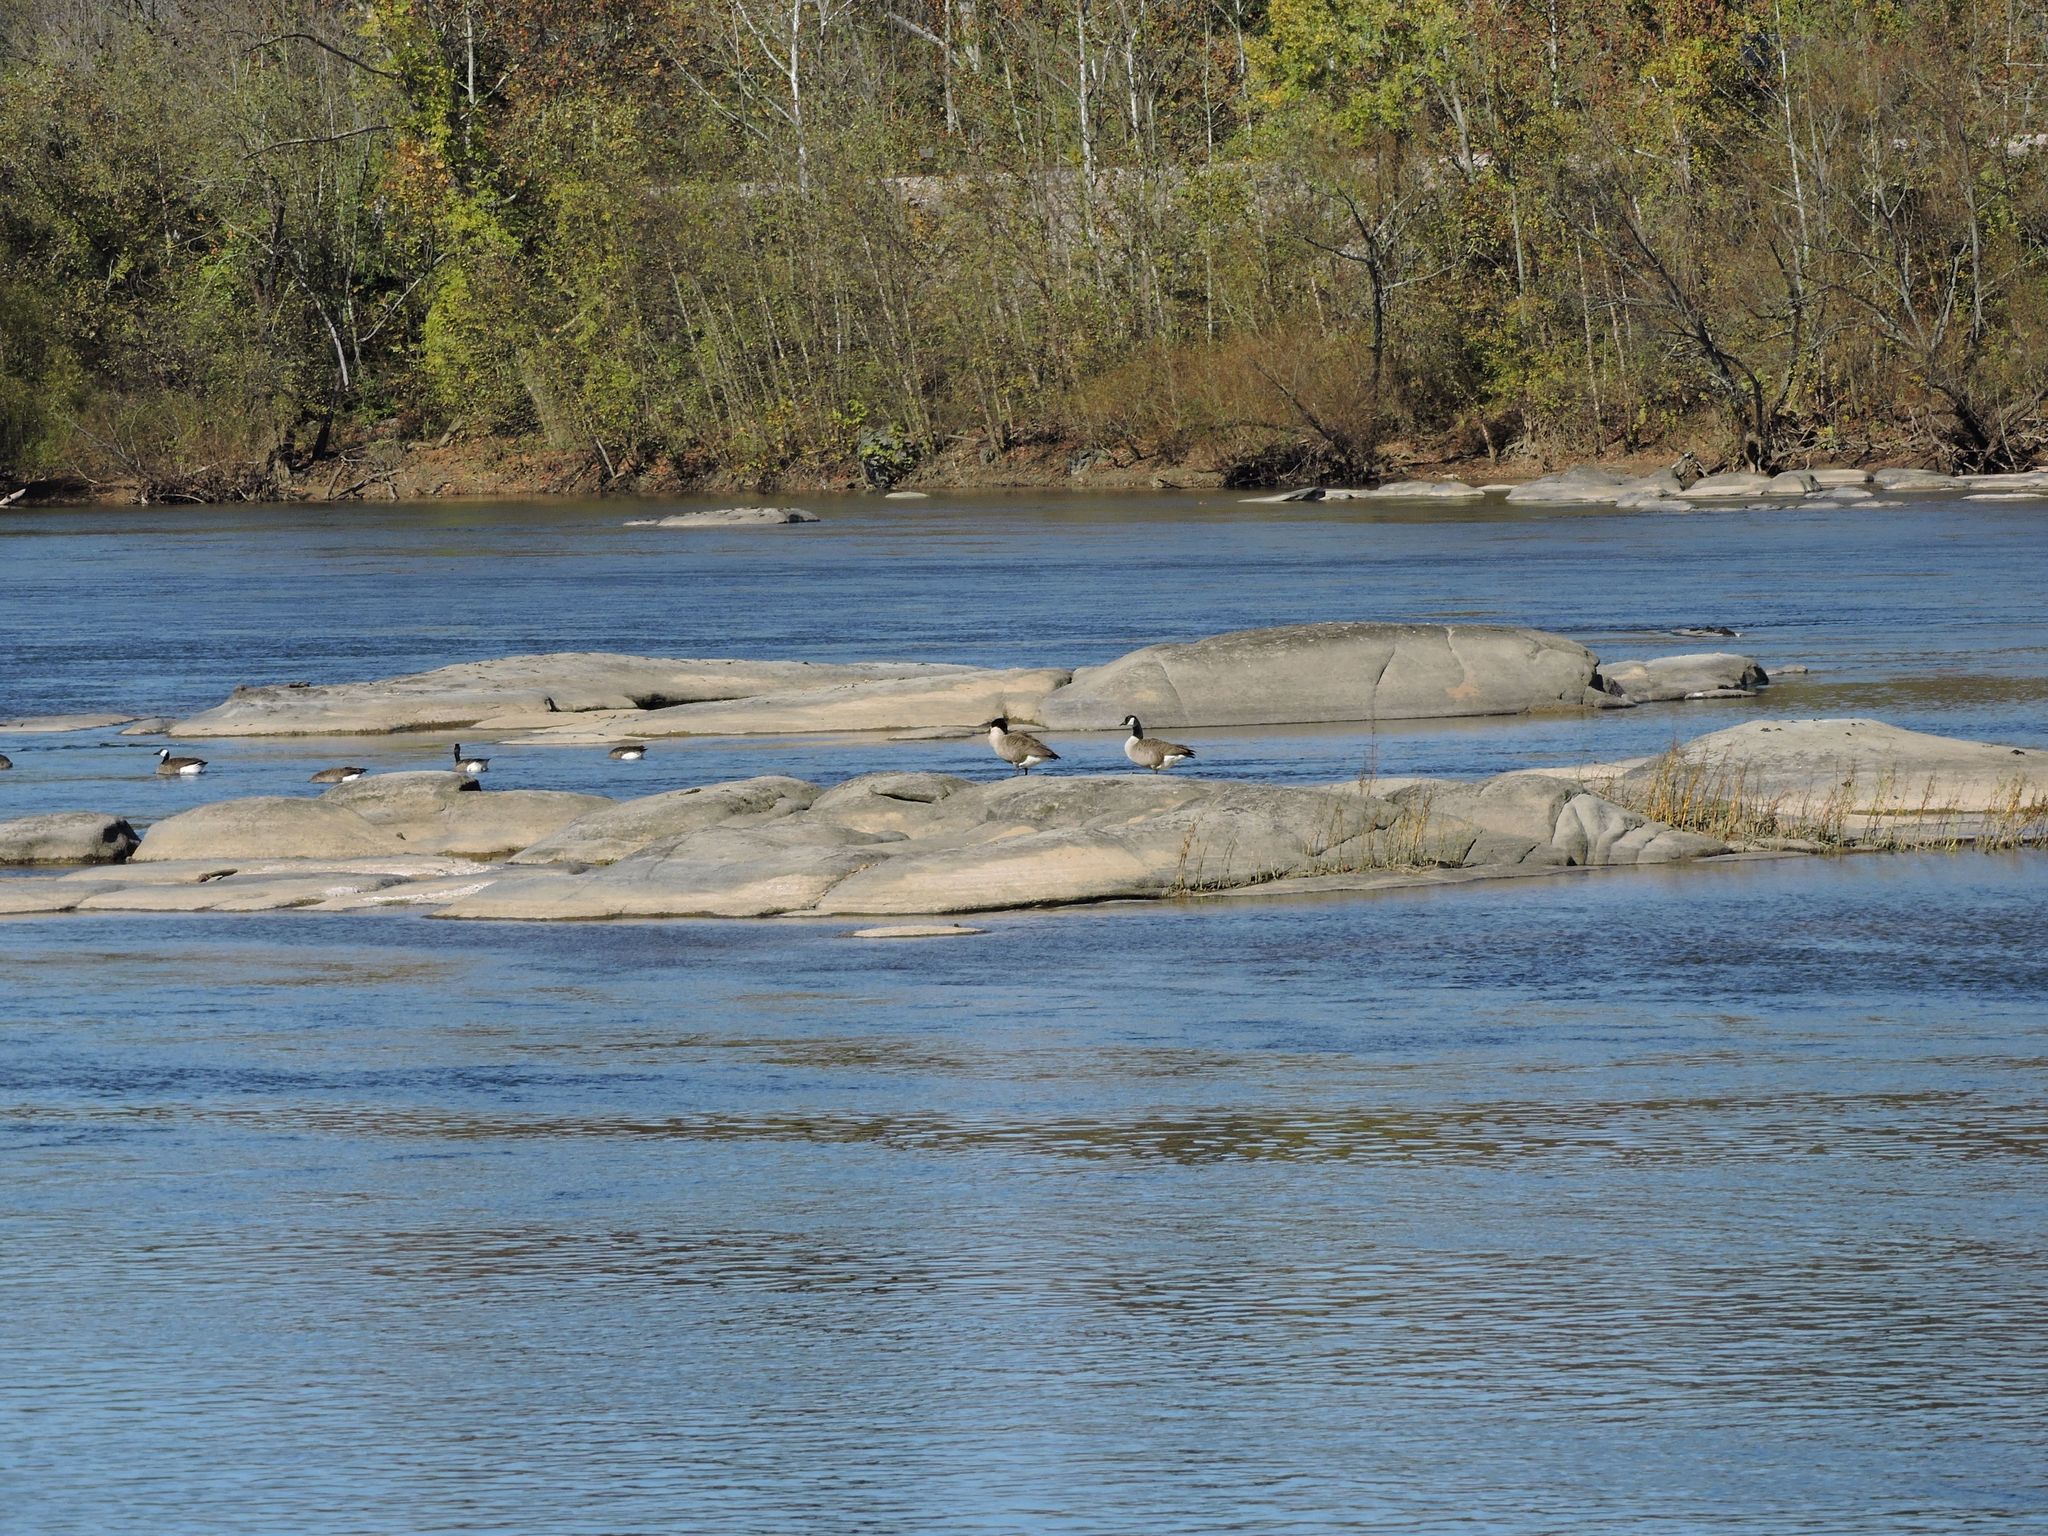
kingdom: Animalia
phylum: Chordata
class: Aves
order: Anseriformes
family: Anatidae
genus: Branta
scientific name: Branta canadensis
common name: Canada goose
